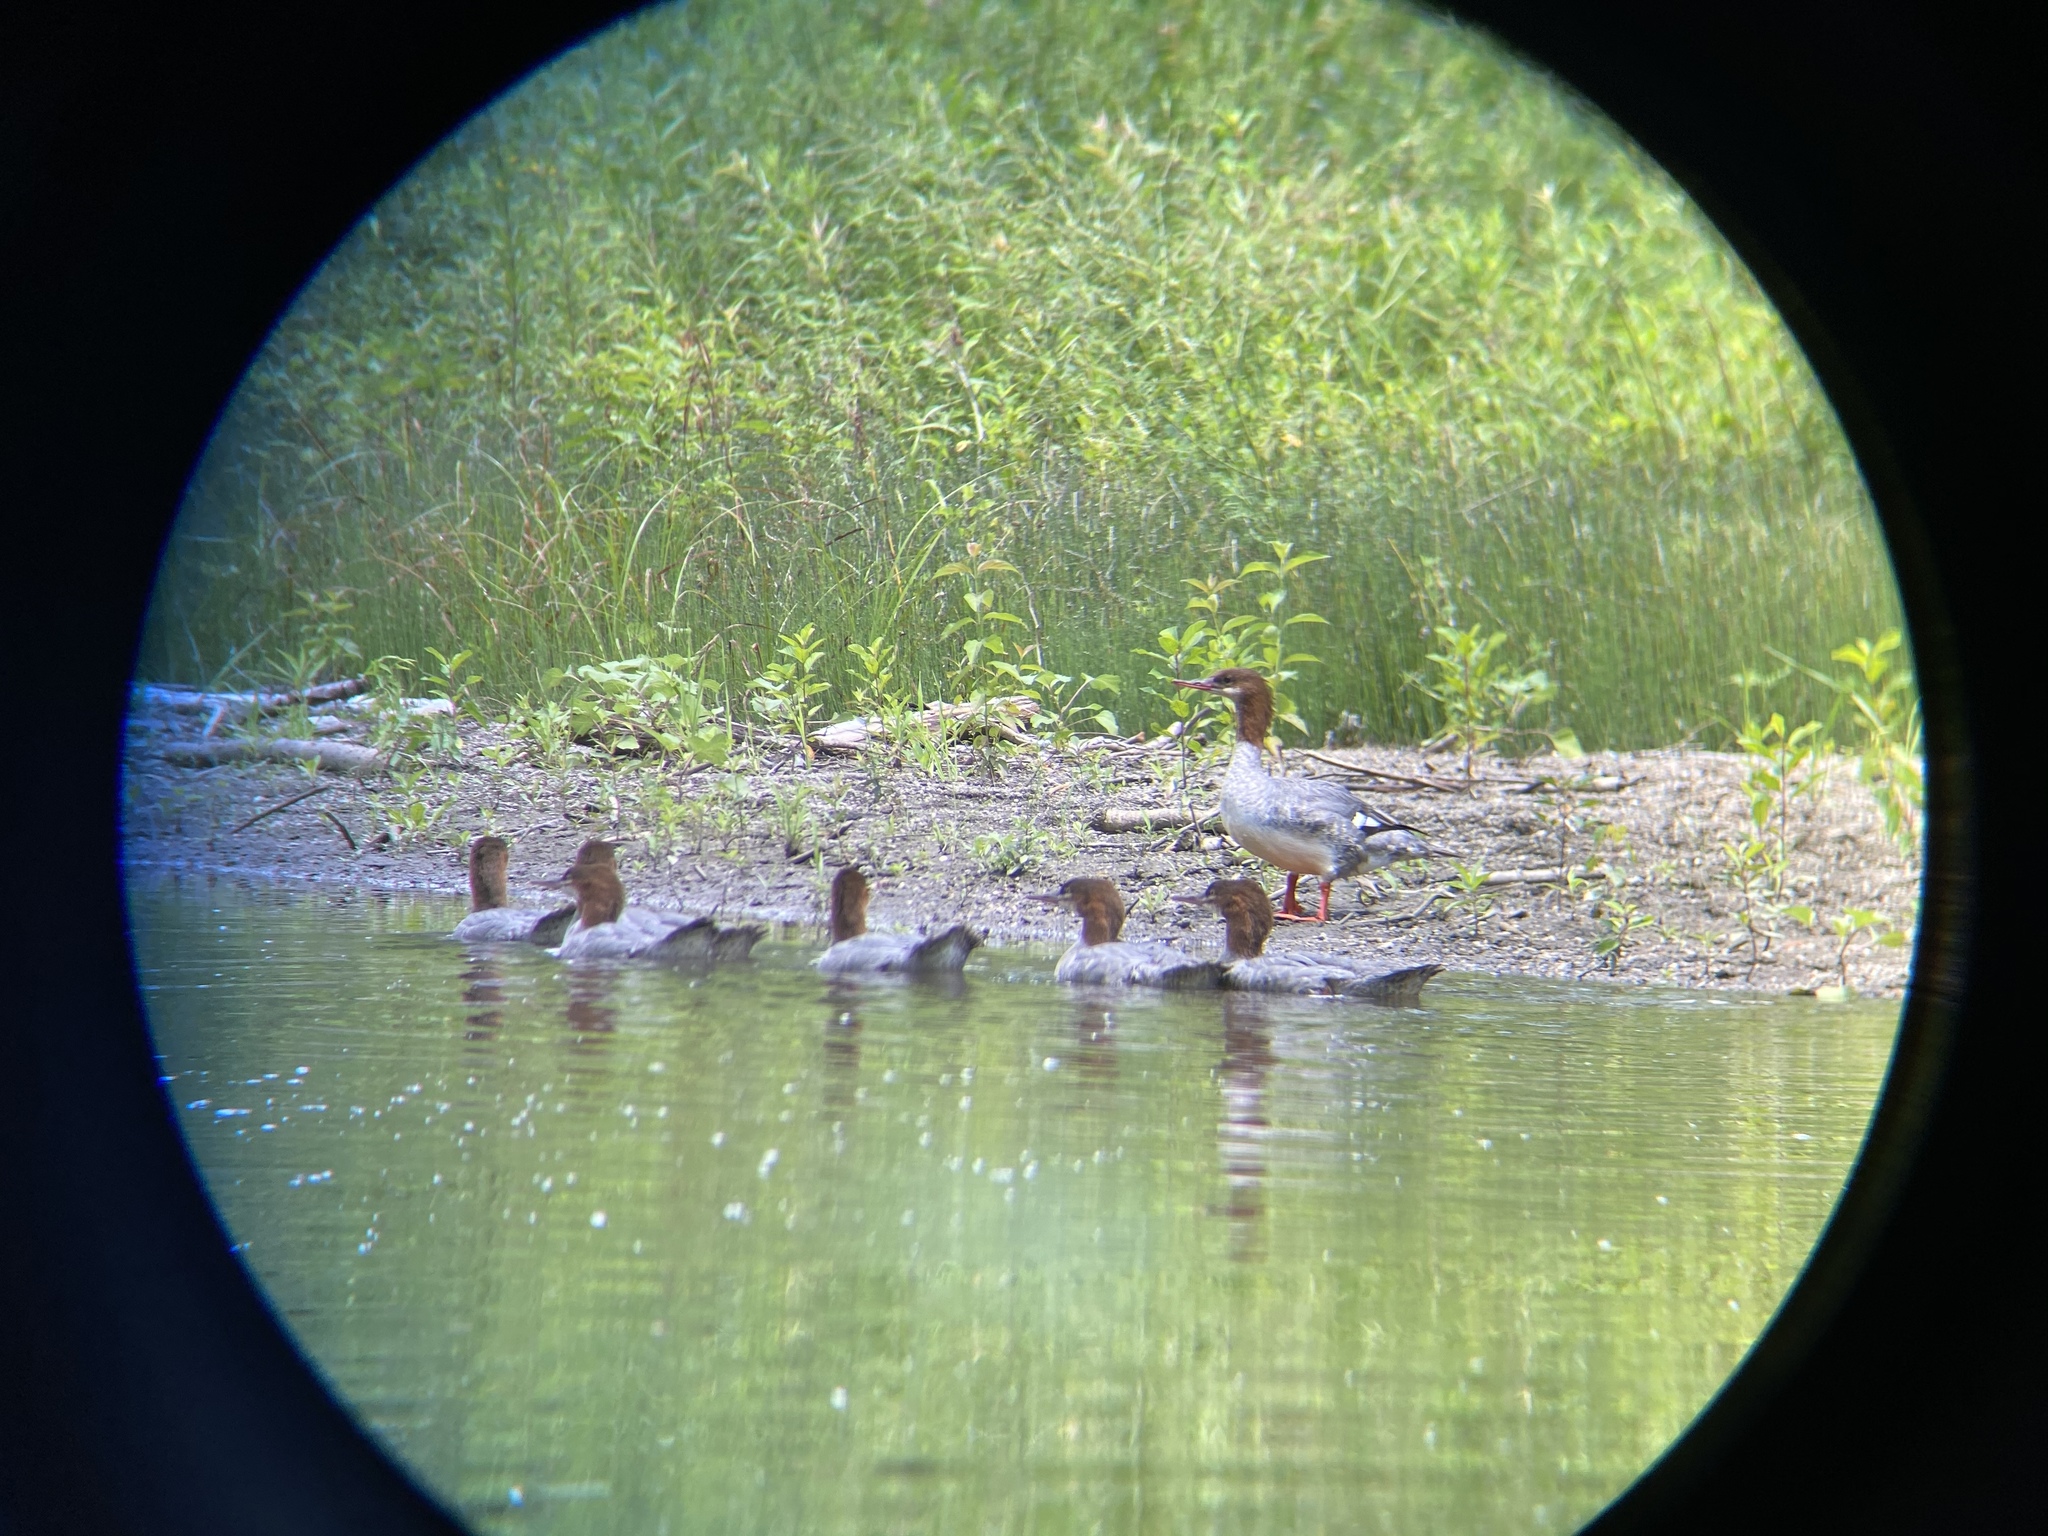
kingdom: Animalia
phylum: Chordata
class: Aves
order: Anseriformes
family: Anatidae
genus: Mergus
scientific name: Mergus merganser
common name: Common merganser
